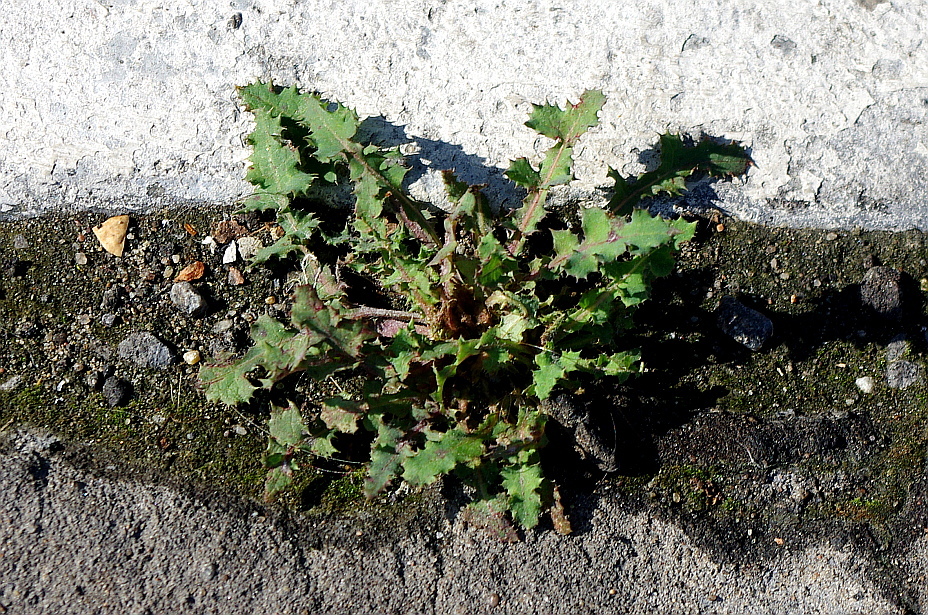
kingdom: Plantae
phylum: Tracheophyta
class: Magnoliopsida
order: Asterales
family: Asteraceae
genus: Sonchus
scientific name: Sonchus oleraceus
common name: Common sowthistle
